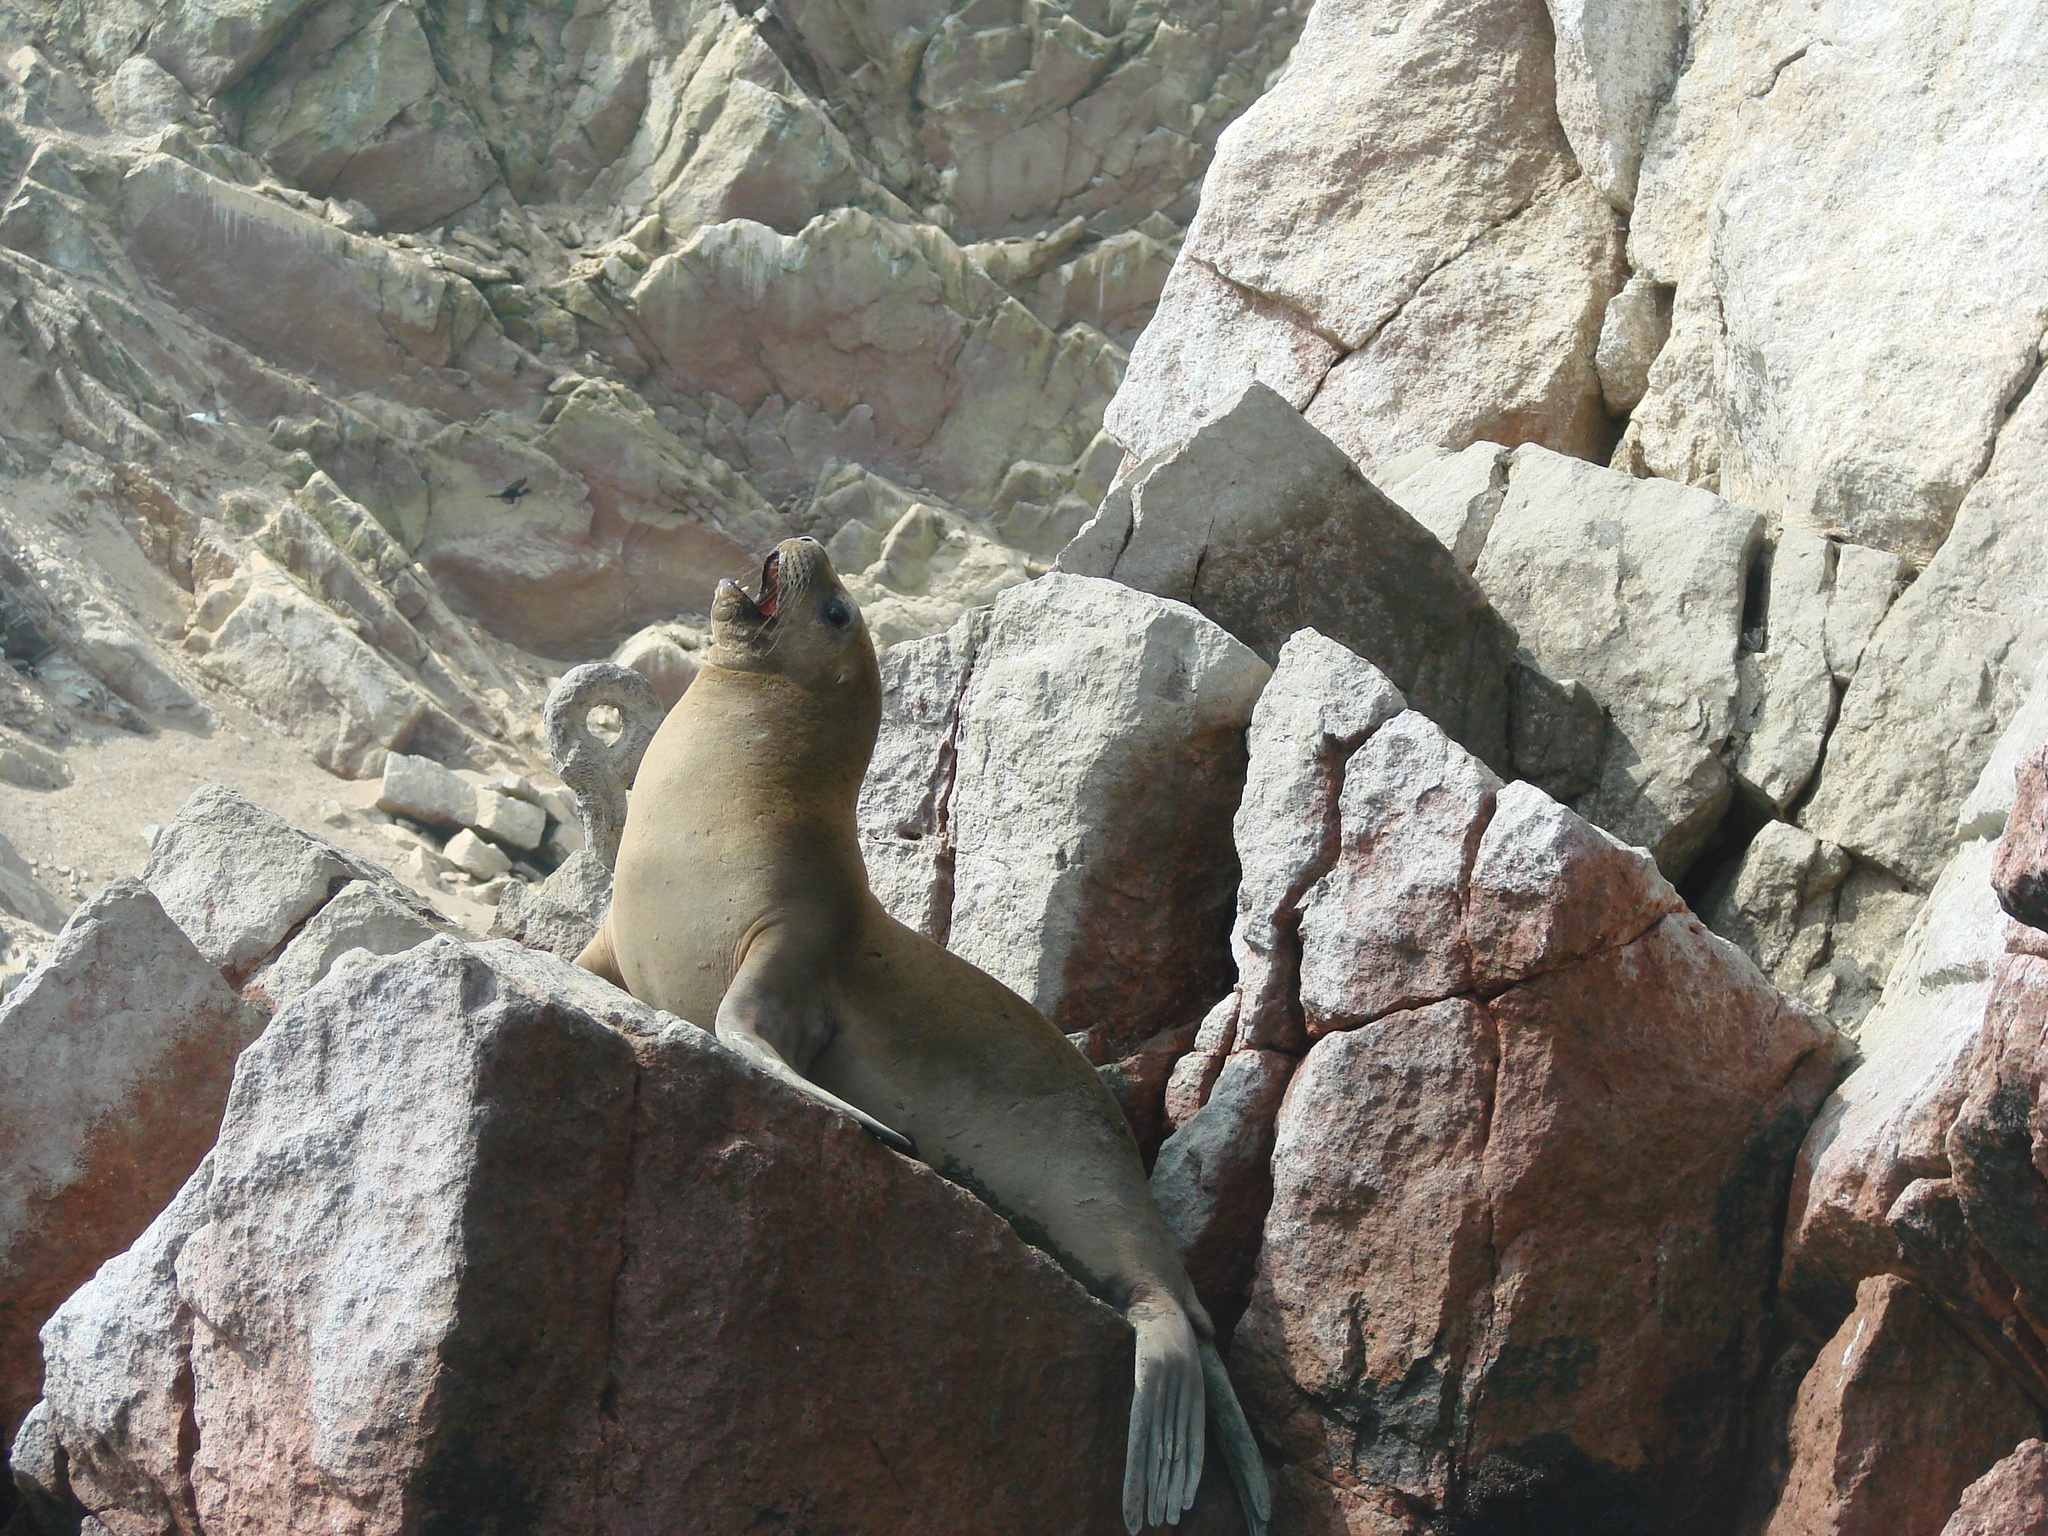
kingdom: Animalia
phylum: Chordata
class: Mammalia
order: Carnivora
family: Otariidae
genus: Otaria
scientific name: Otaria byronia
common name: South american sea lion
